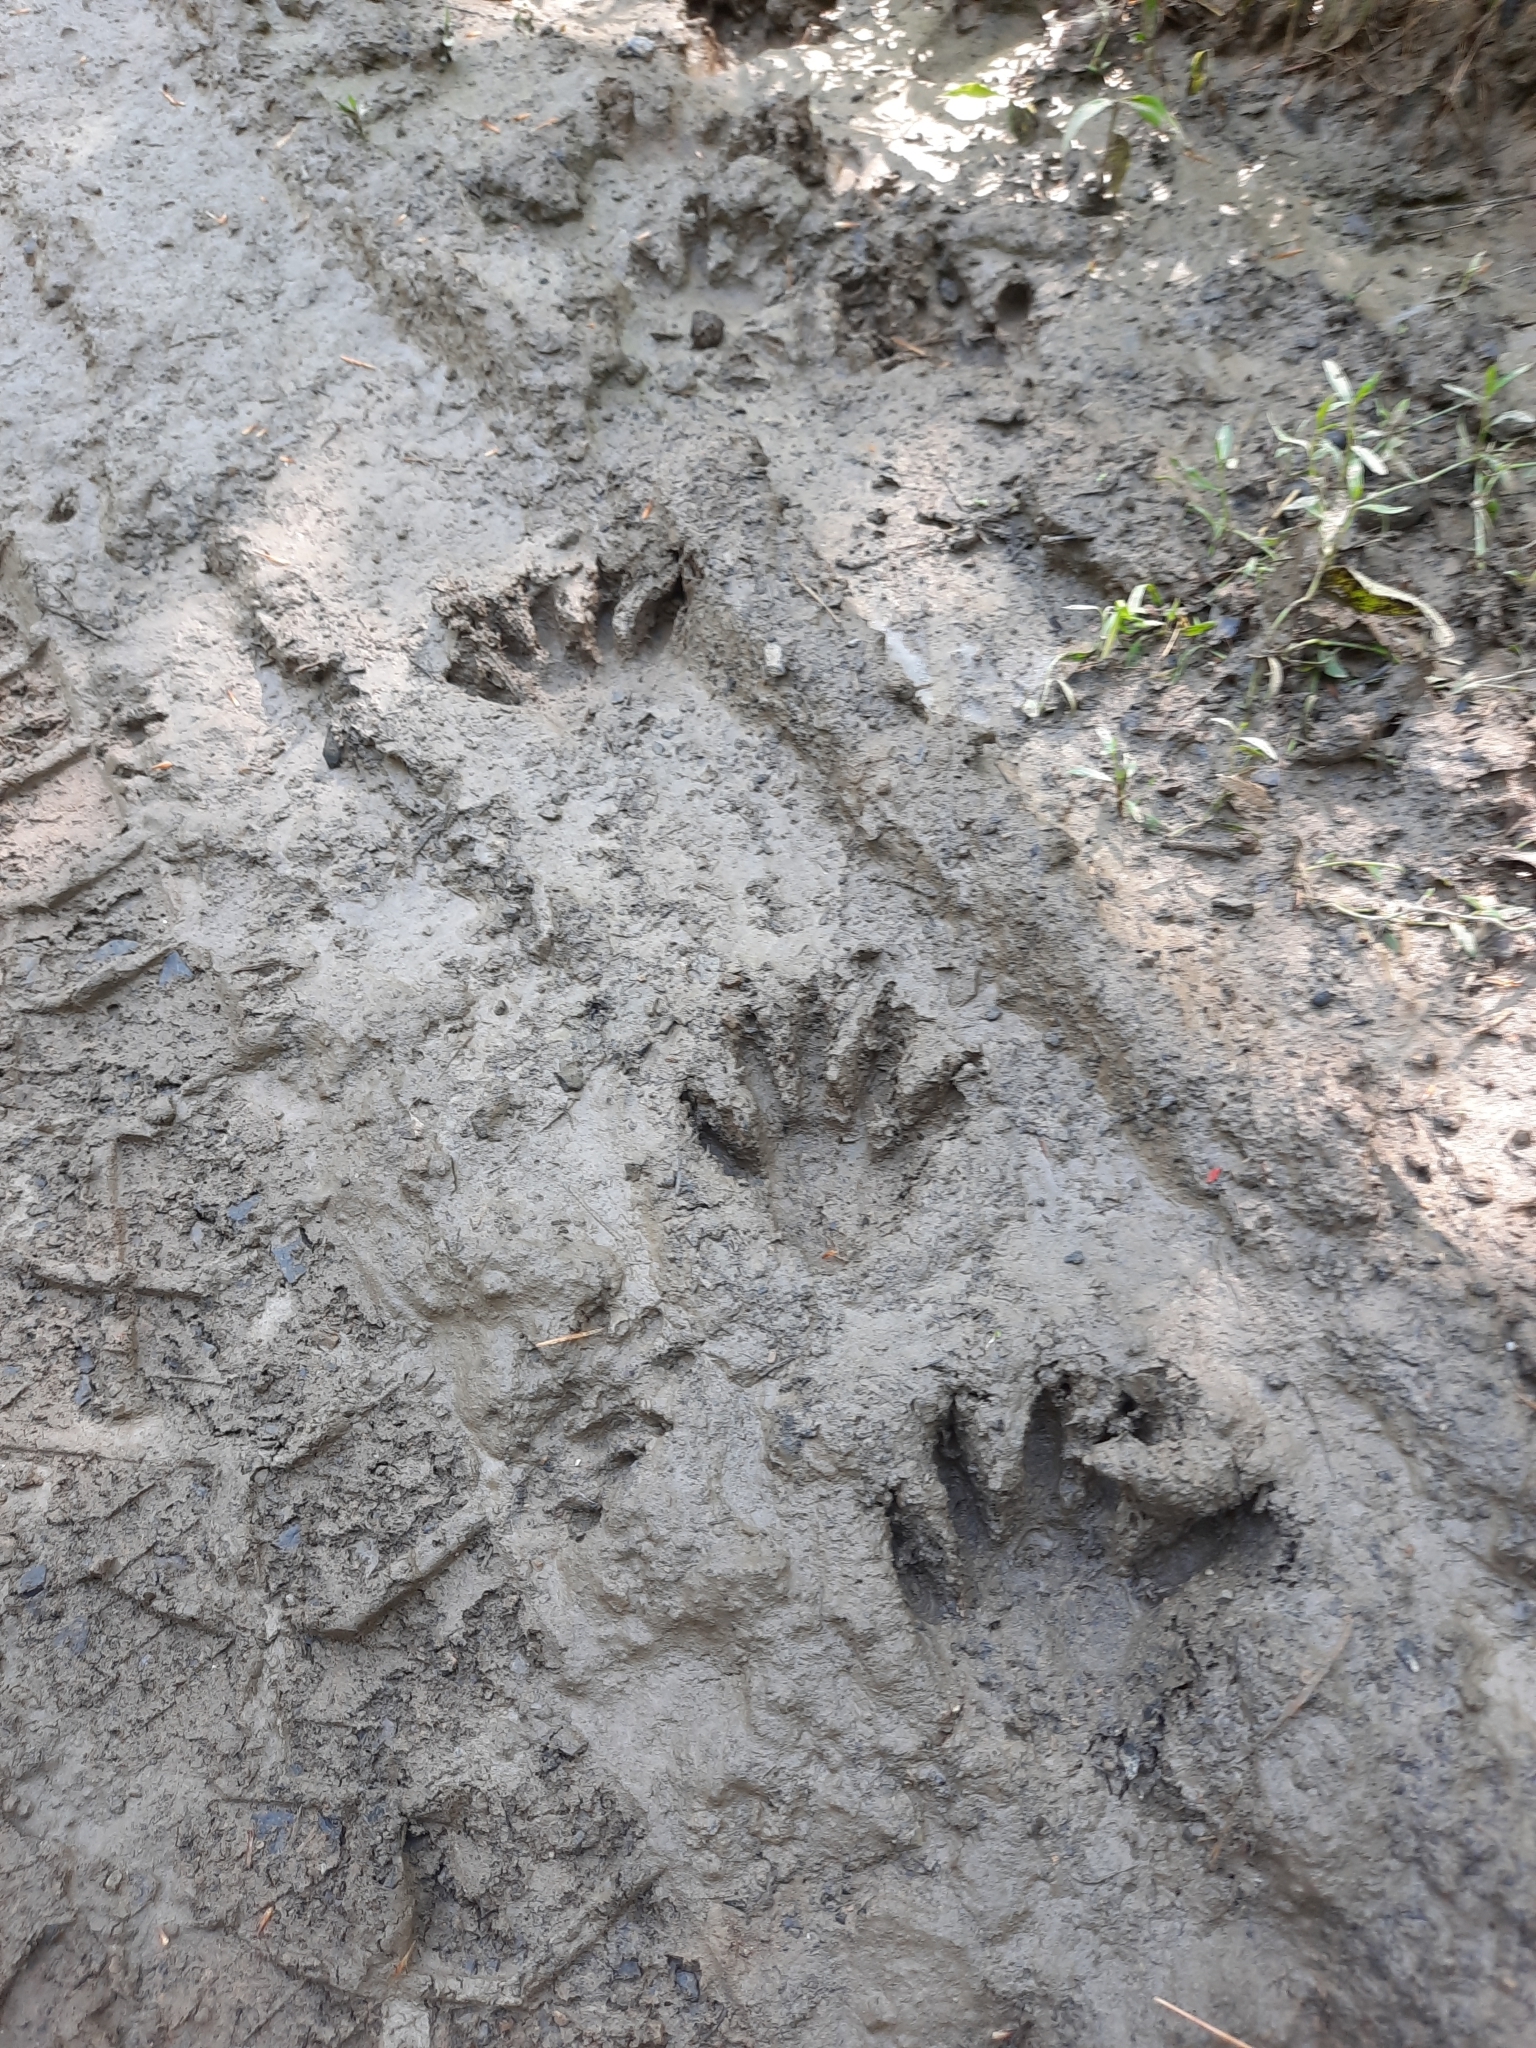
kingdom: Animalia
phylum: Chordata
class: Mammalia
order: Carnivora
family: Procyonidae
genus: Procyon
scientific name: Procyon lotor
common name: Raccoon
